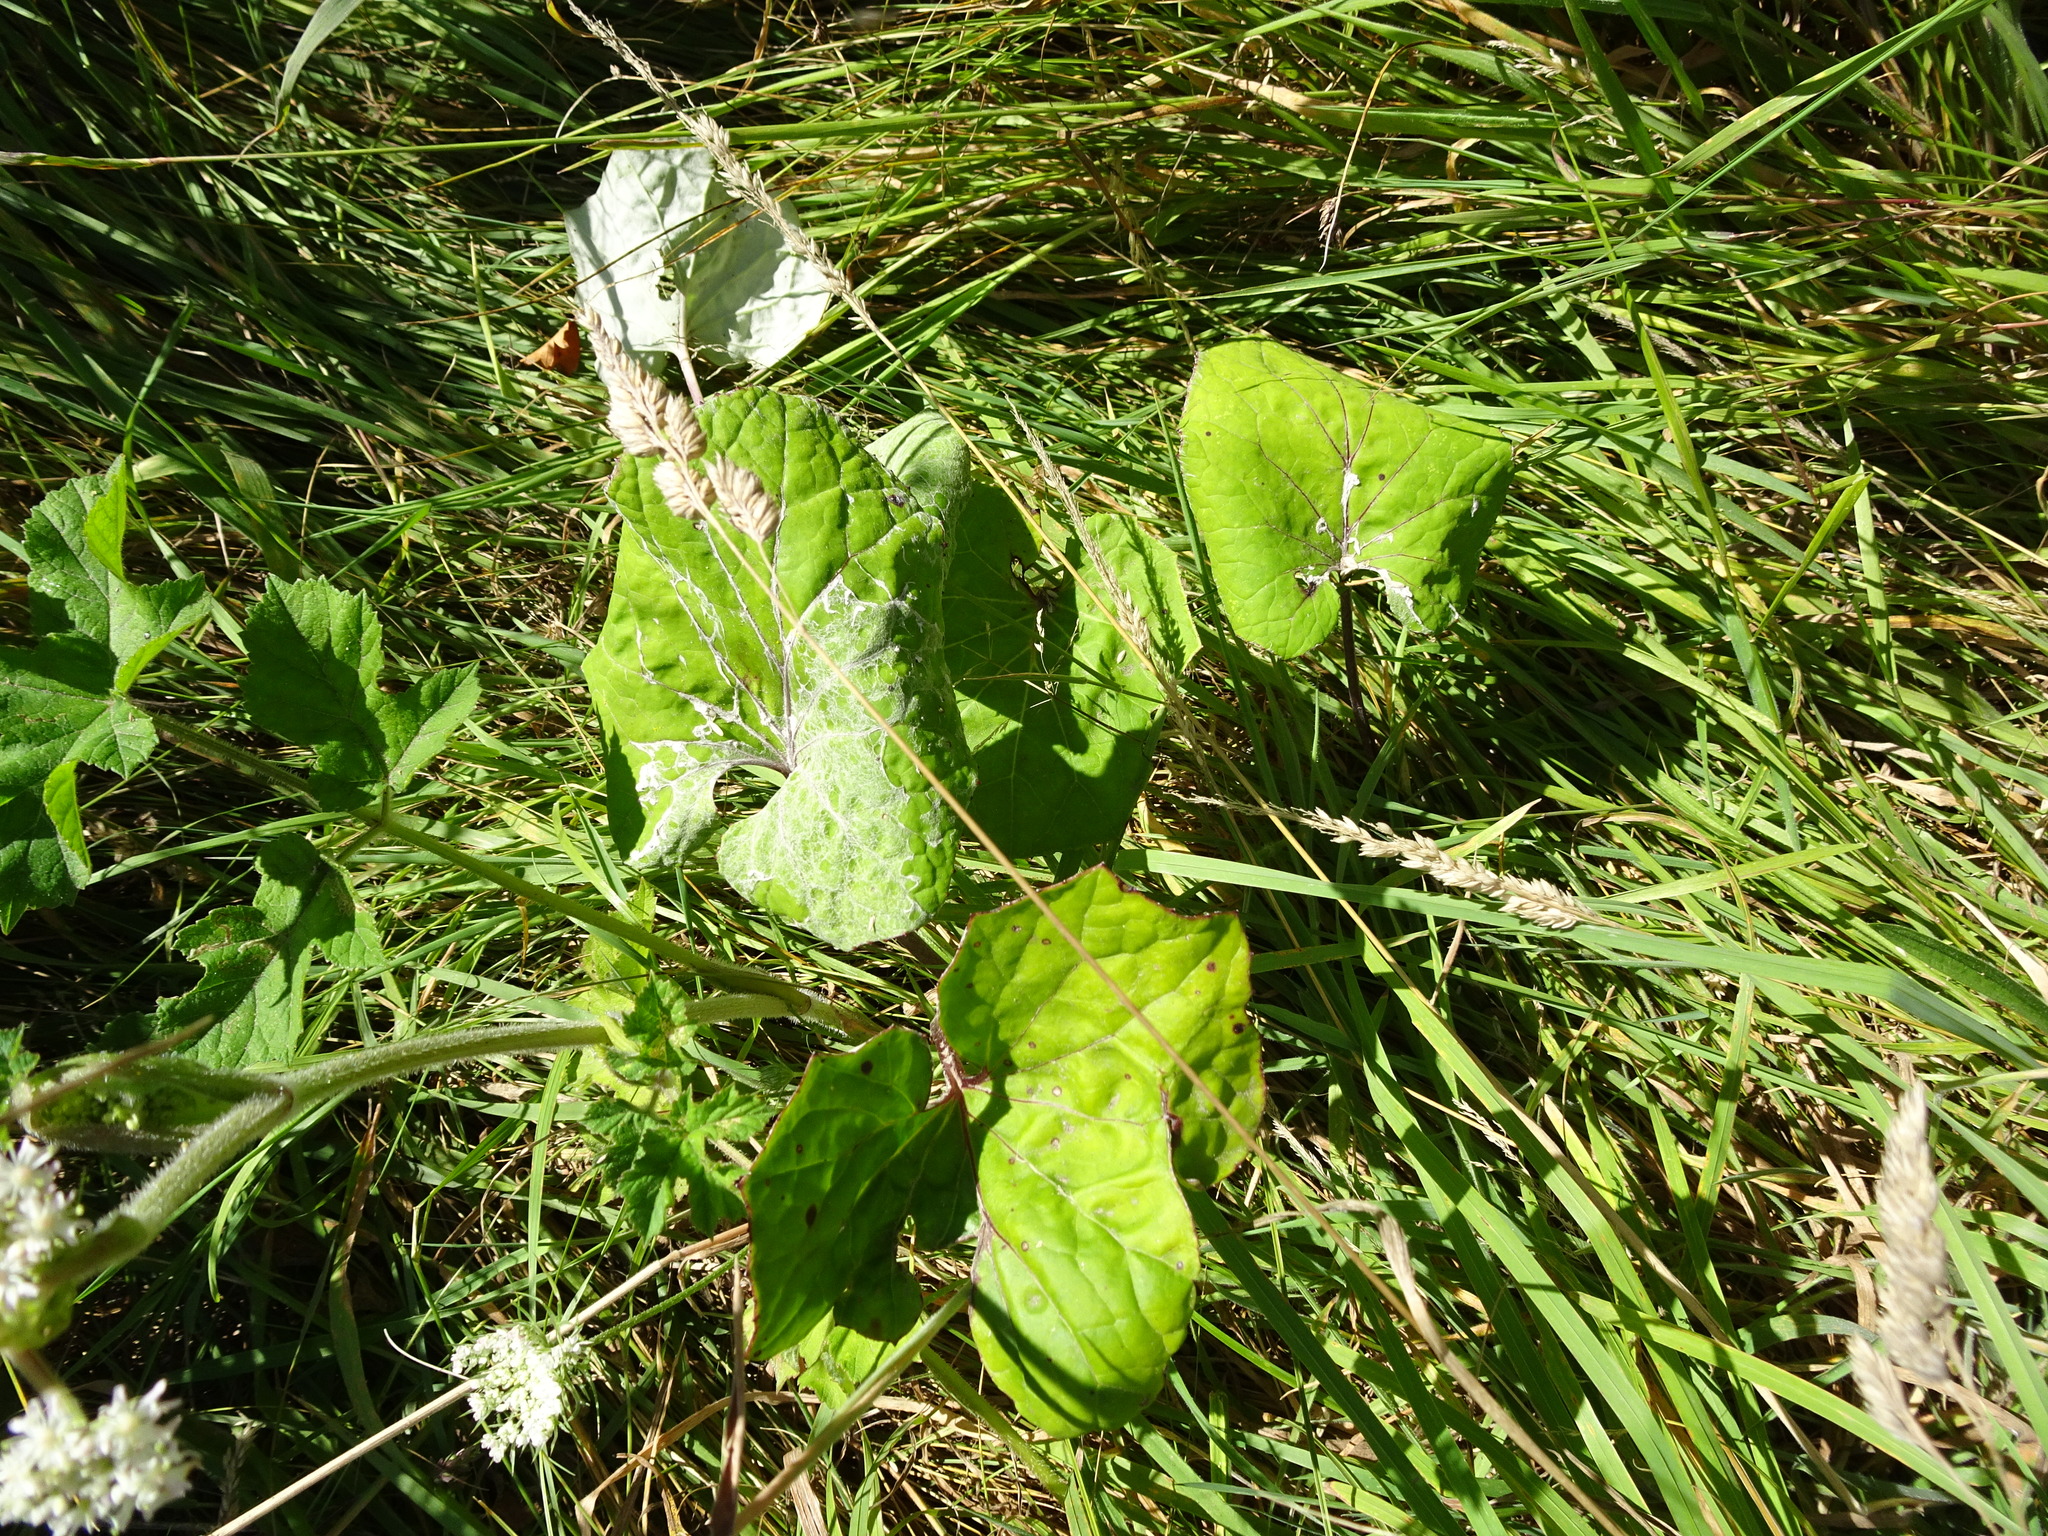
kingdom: Plantae
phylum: Tracheophyta
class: Magnoliopsida
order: Asterales
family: Asteraceae
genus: Tussilago
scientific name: Tussilago farfara
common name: Coltsfoot
